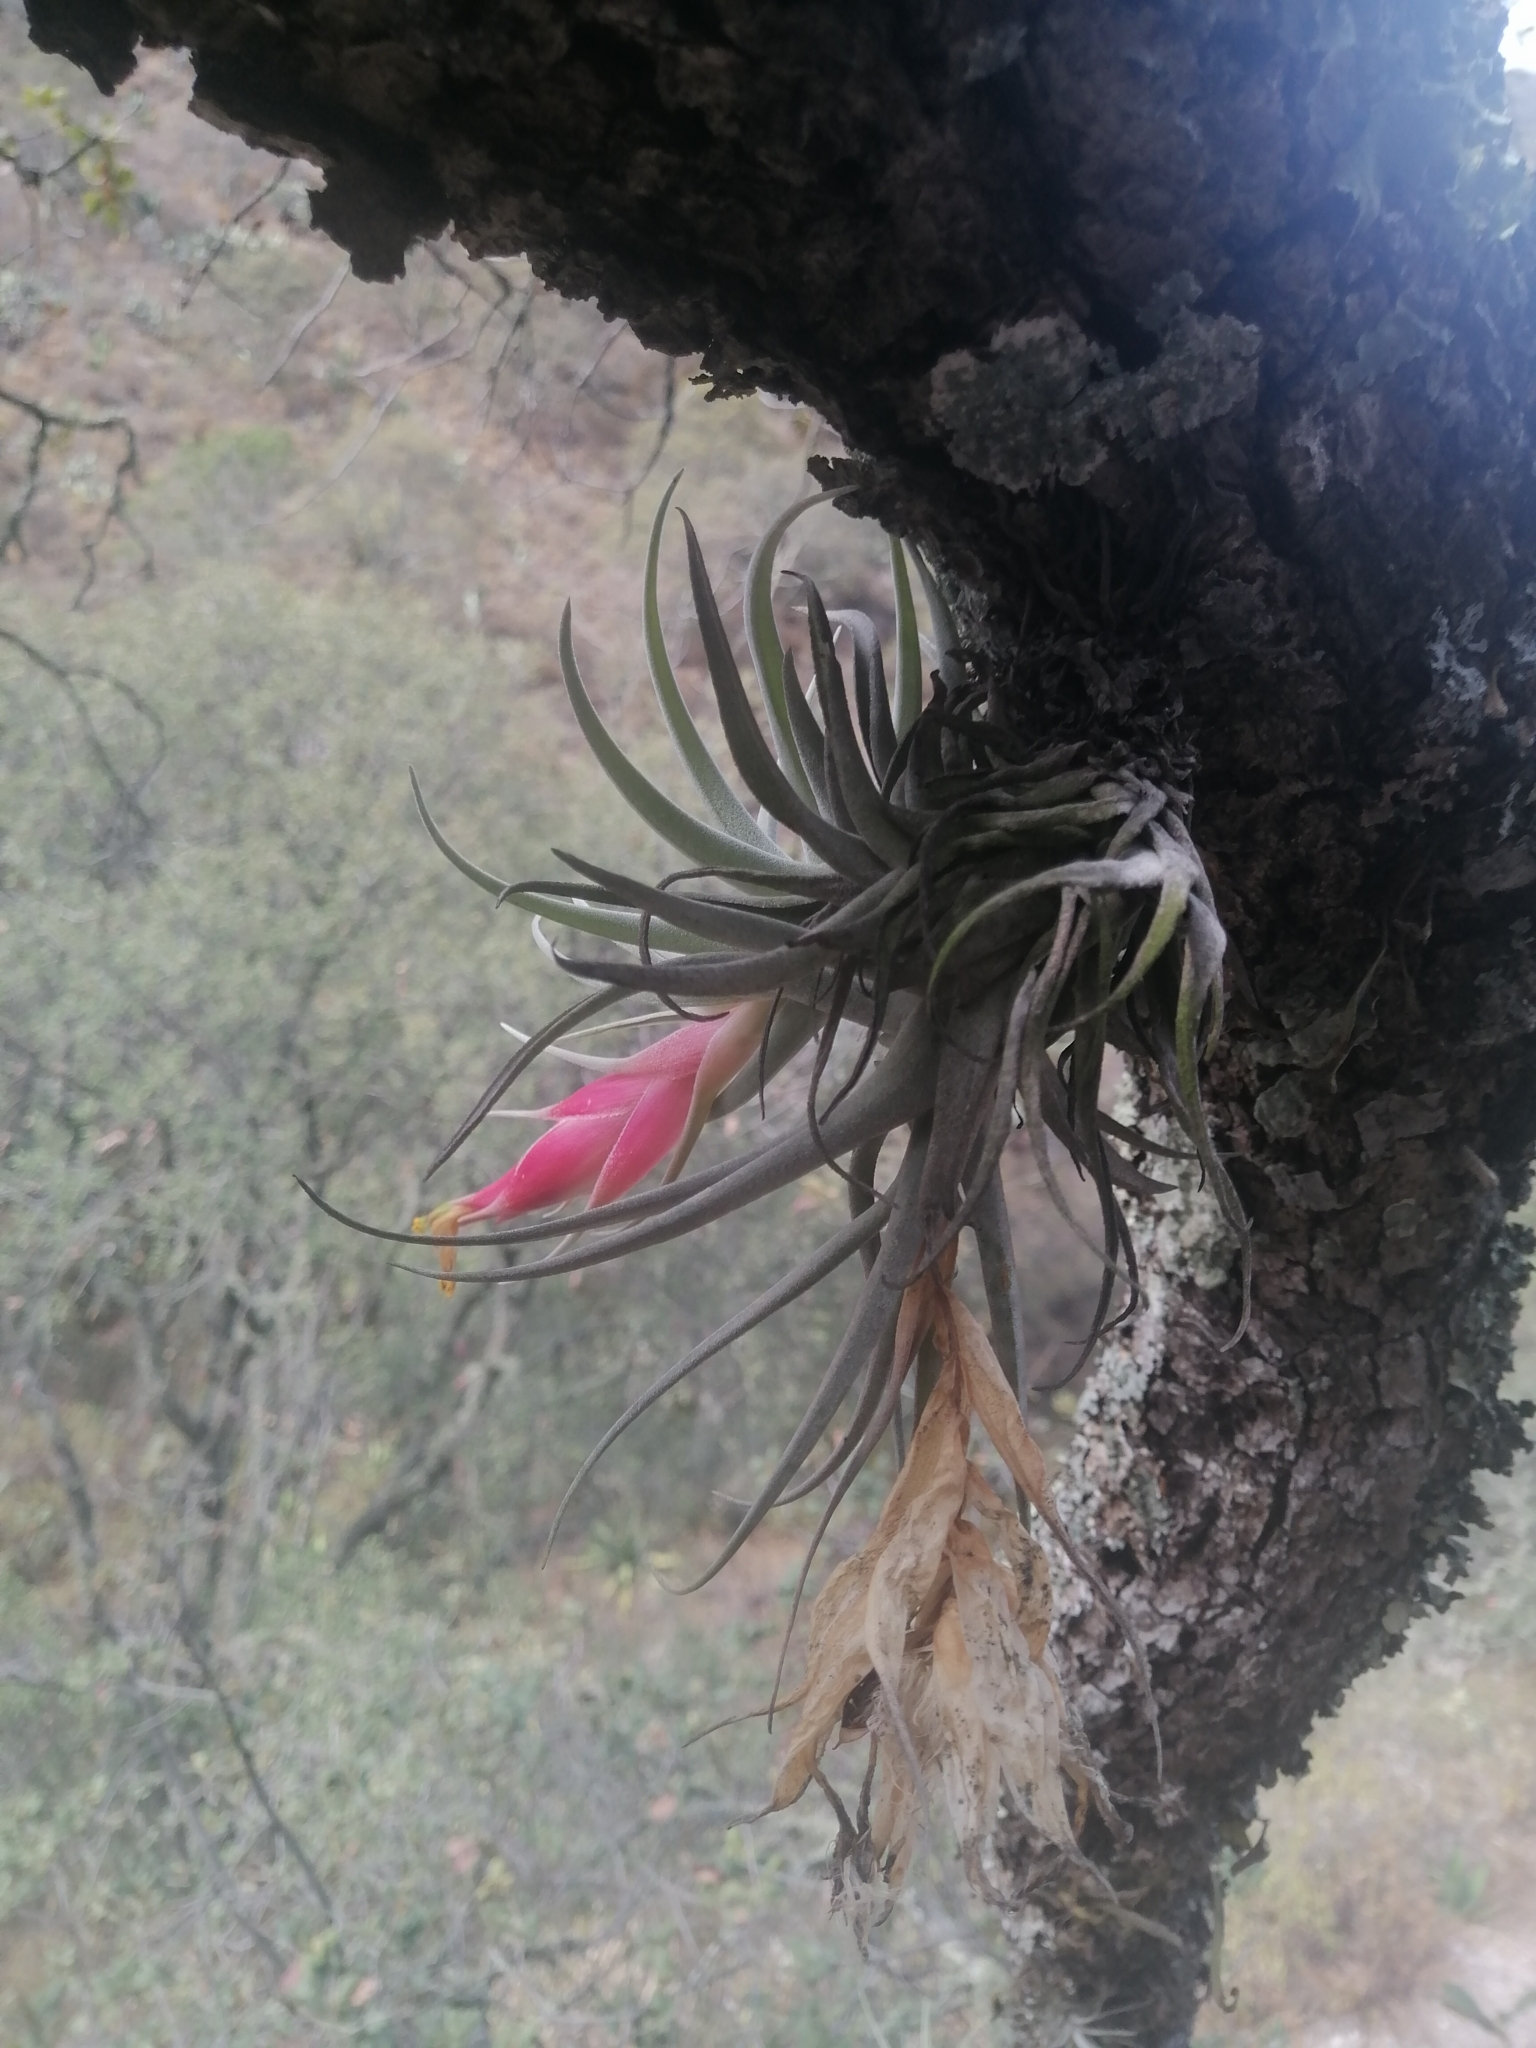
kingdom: Plantae
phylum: Tracheophyta
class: Liliopsida
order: Poales
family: Bromeliaceae
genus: Tillandsia
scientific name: Tillandsia erubescens
